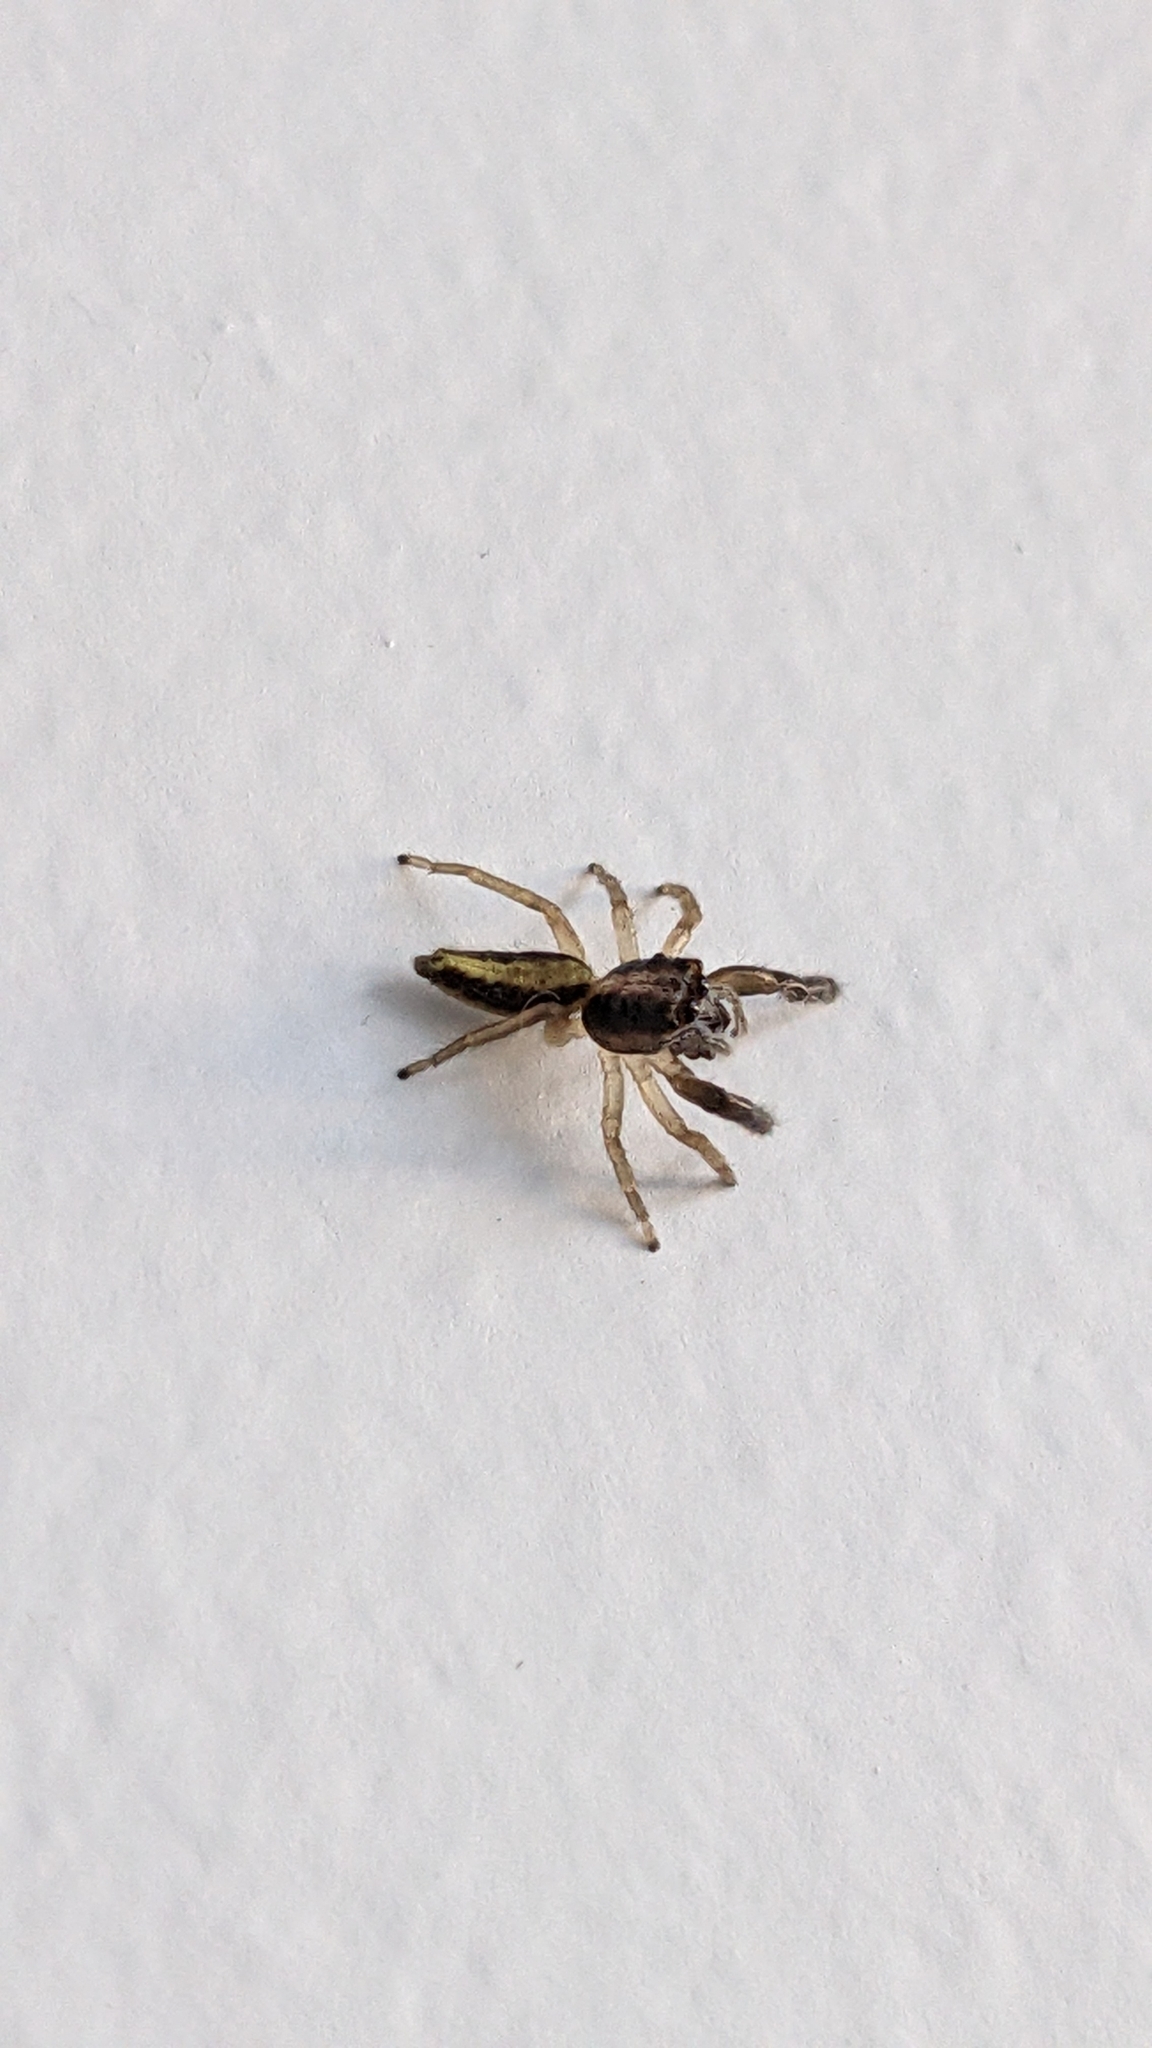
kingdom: Animalia
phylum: Arthropoda
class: Arachnida
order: Araneae
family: Salticidae
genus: Trite
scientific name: Trite planiceps
